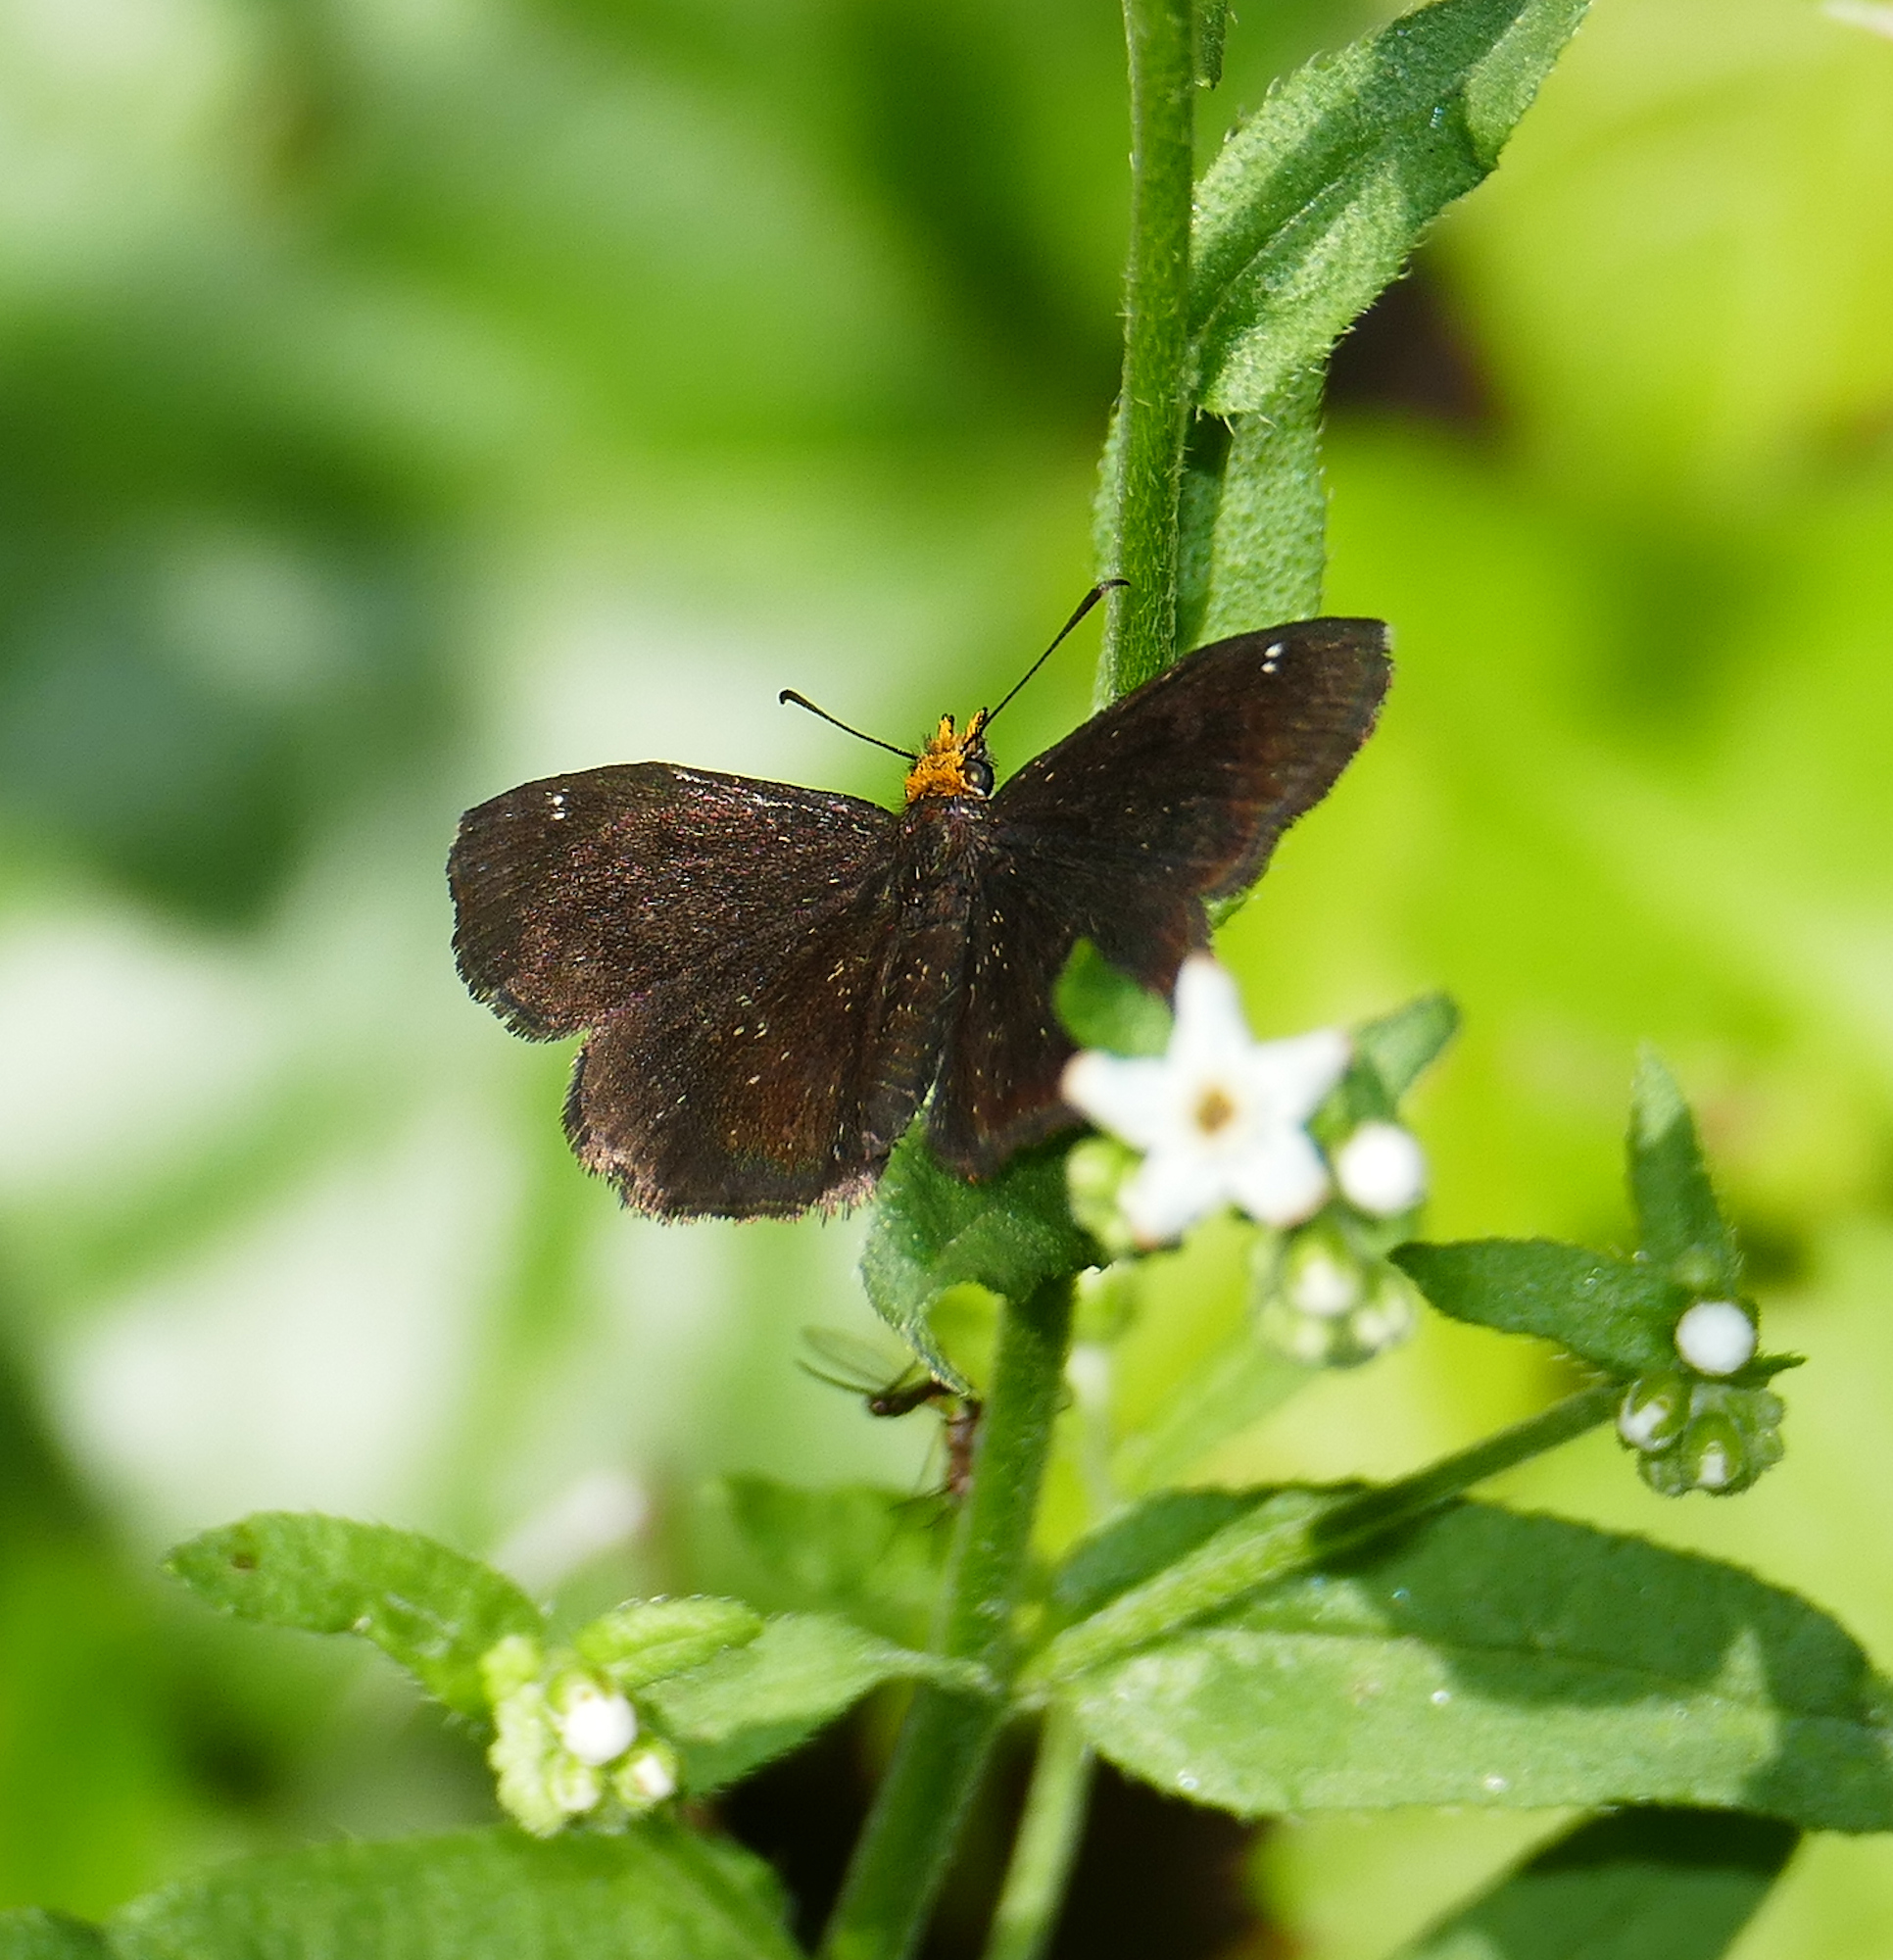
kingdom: Animalia
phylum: Arthropoda
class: Insecta
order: Lepidoptera
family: Hesperiidae
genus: Staphylus
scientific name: Staphylus ceos
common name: Golden-headed scallopwing
